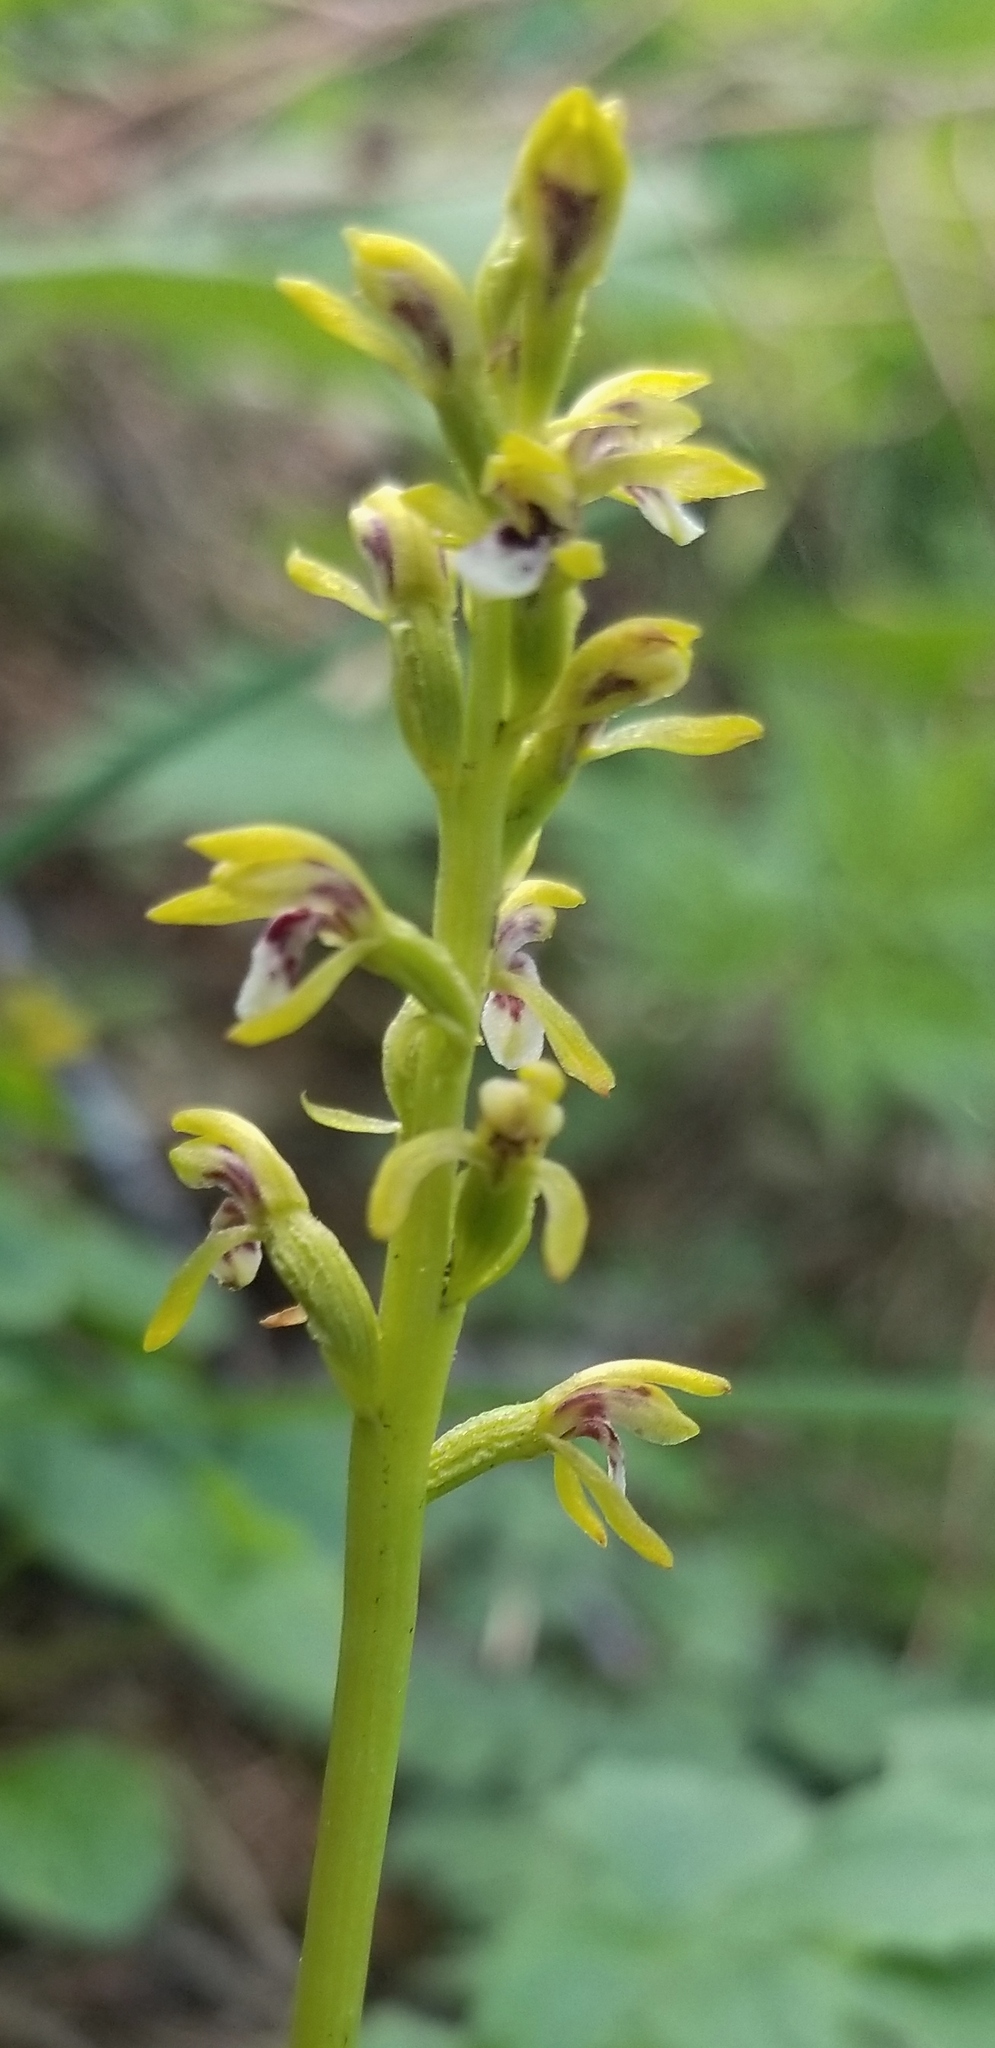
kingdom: Plantae
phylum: Tracheophyta
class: Liliopsida
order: Asparagales
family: Orchidaceae
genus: Corallorhiza
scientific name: Corallorhiza trifida
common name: Yellow coralroot
